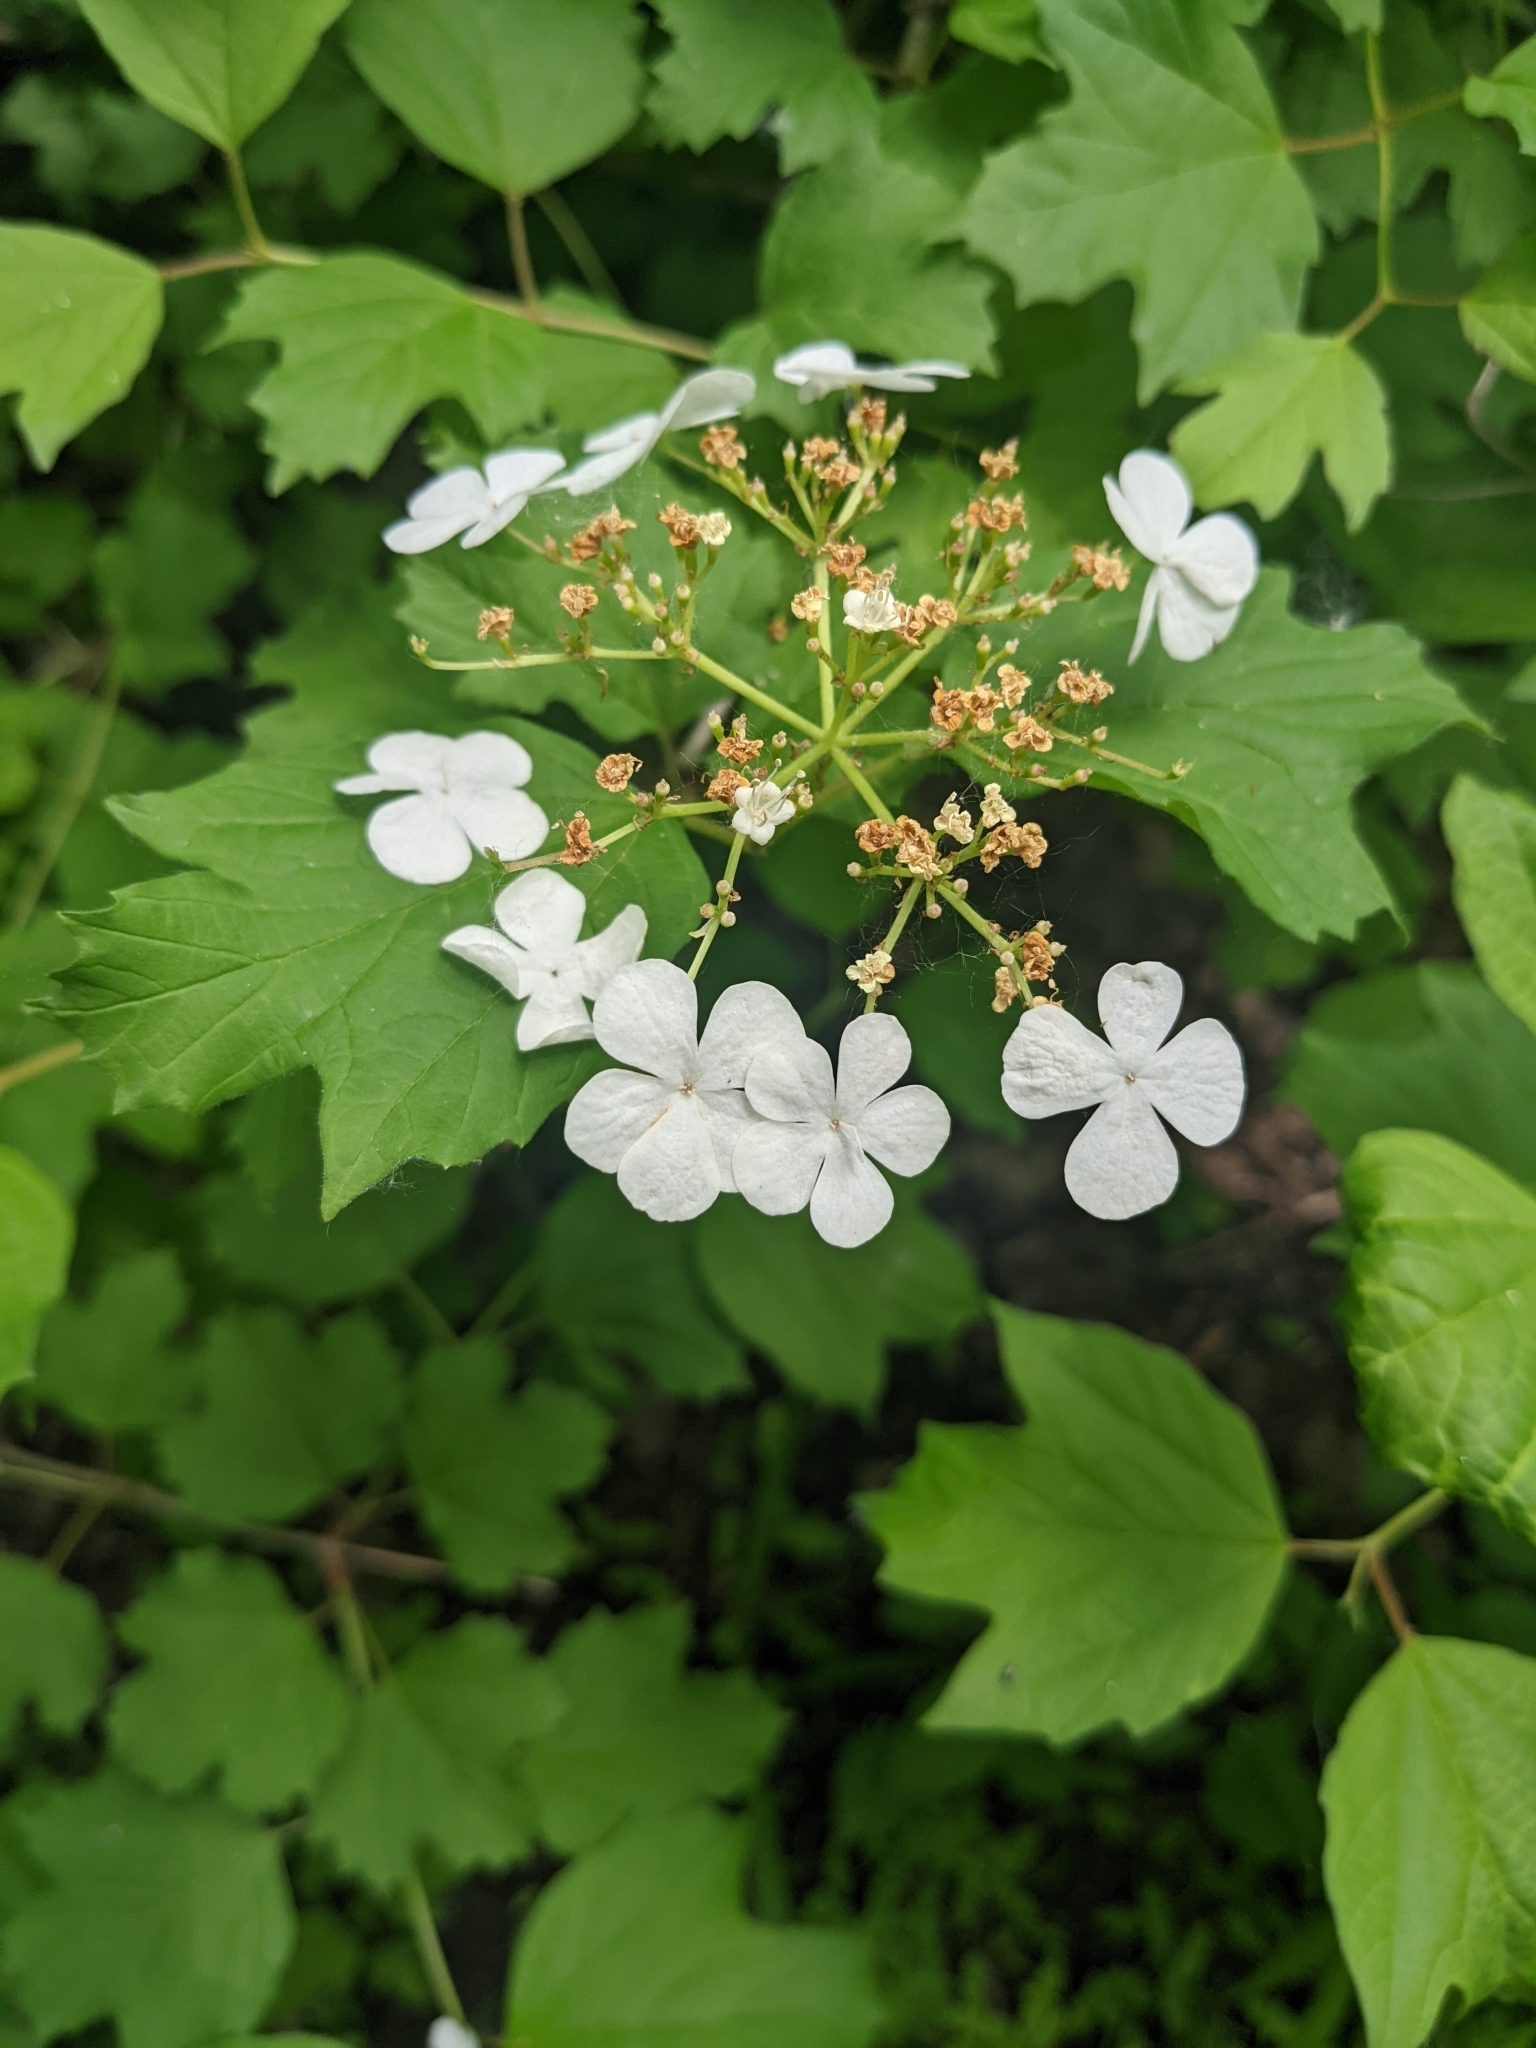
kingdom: Plantae
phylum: Tracheophyta
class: Magnoliopsida
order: Dipsacales
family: Viburnaceae
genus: Viburnum
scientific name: Viburnum opulus
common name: Guelder-rose
